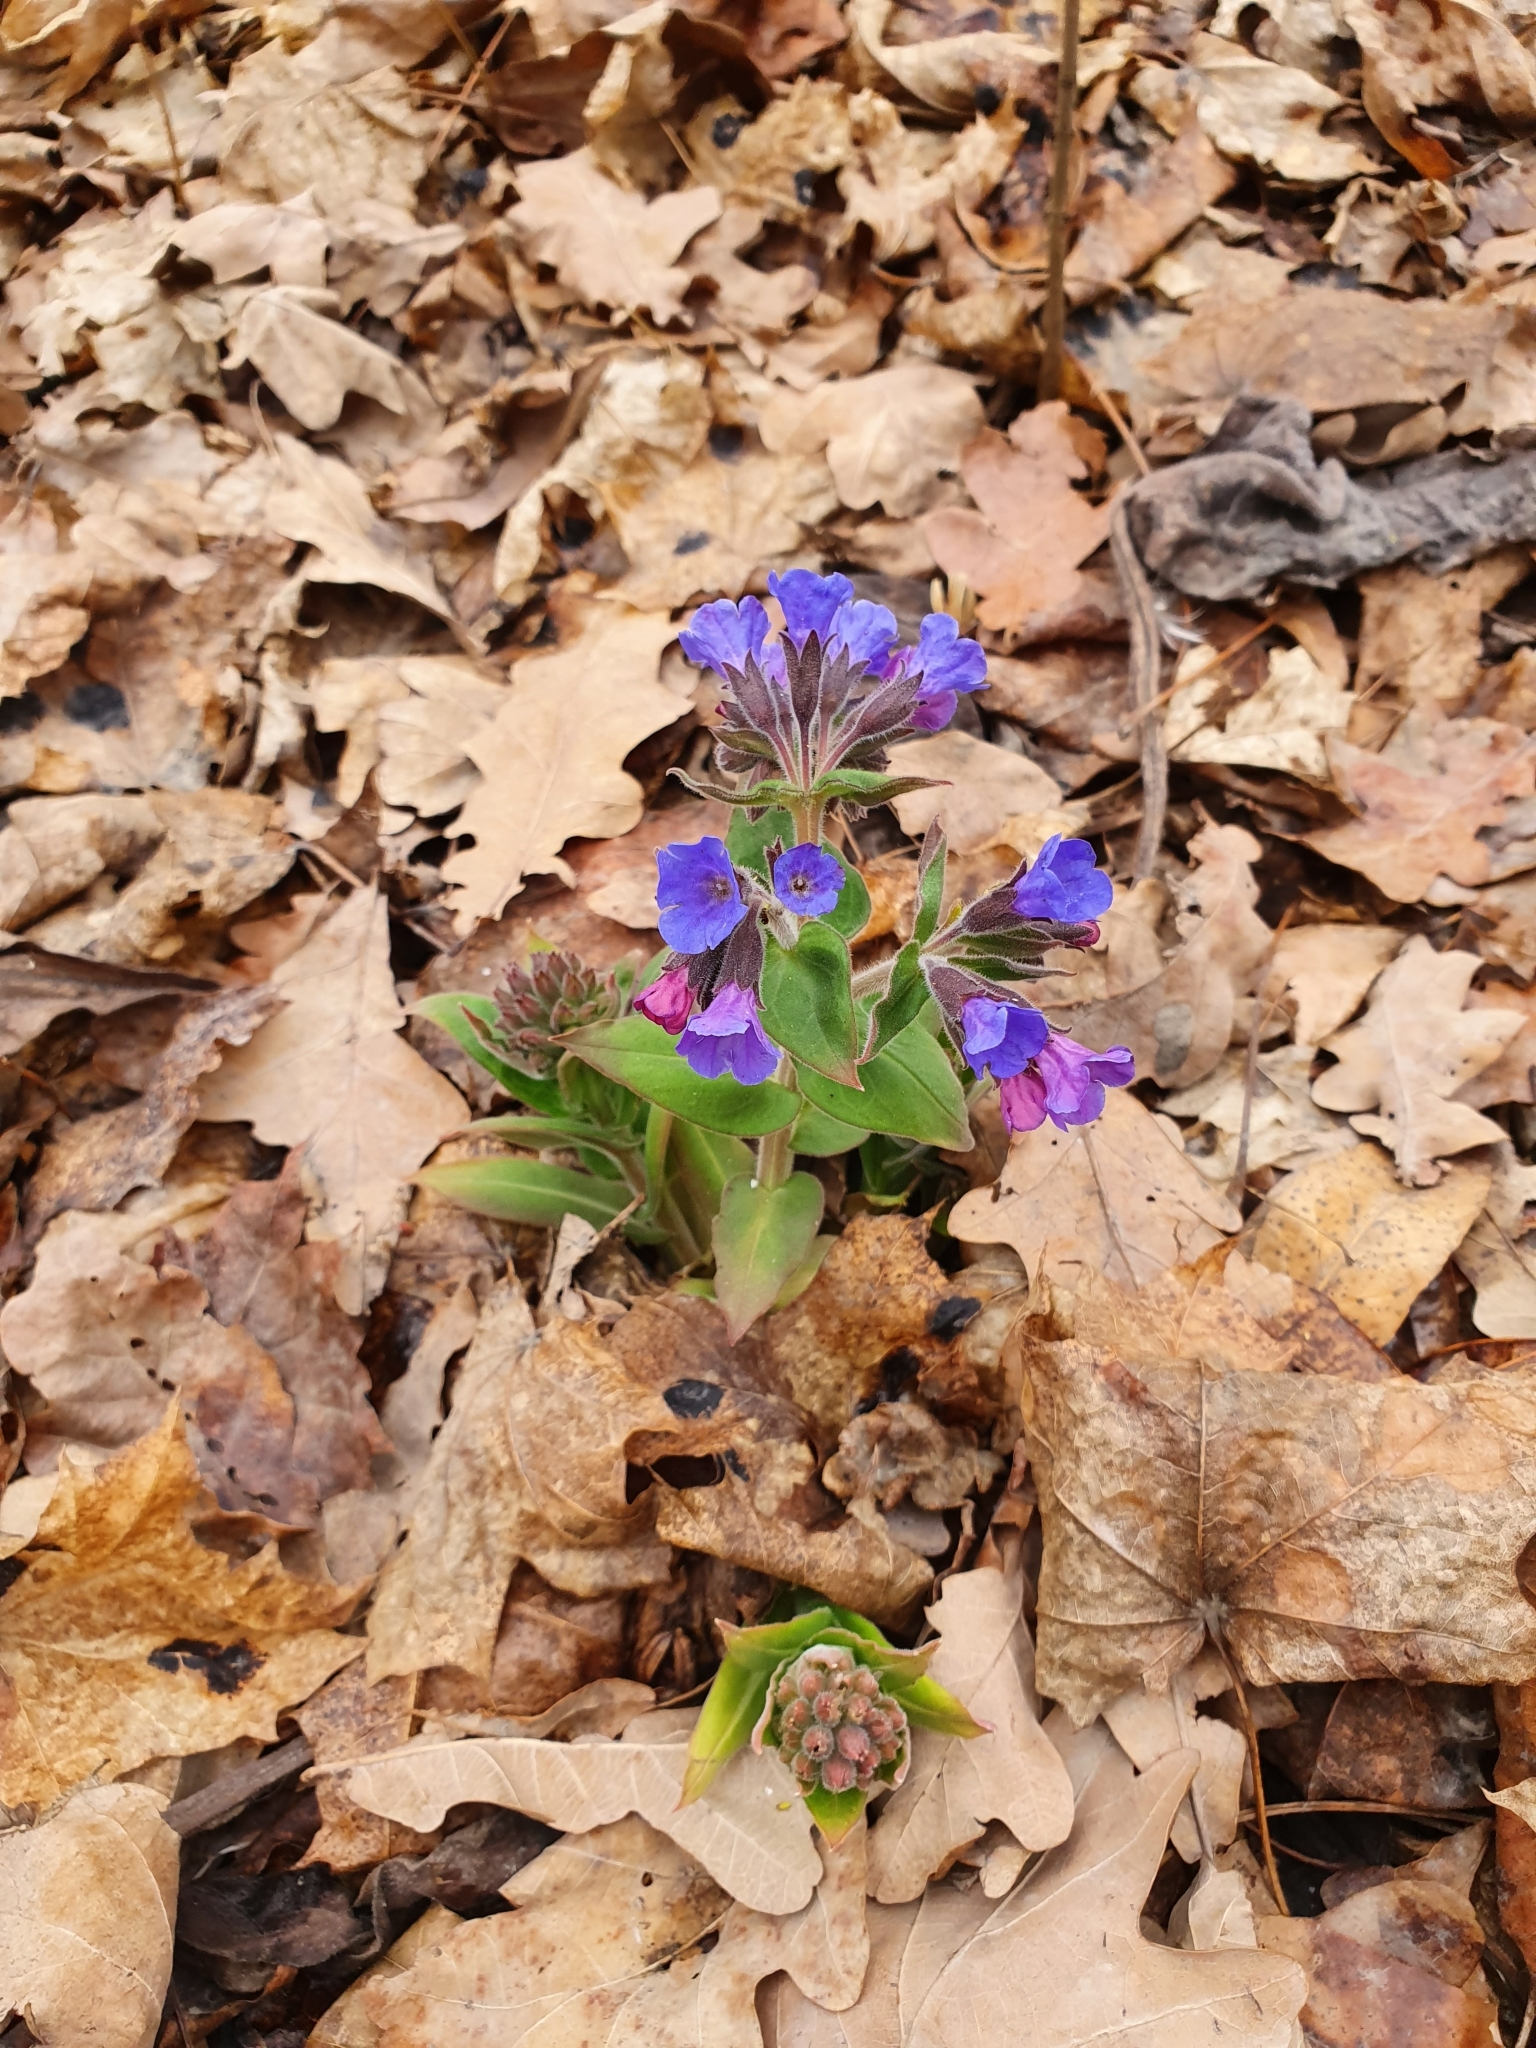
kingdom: Plantae
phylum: Tracheophyta
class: Magnoliopsida
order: Boraginales
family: Boraginaceae
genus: Pulmonaria
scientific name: Pulmonaria mollis
